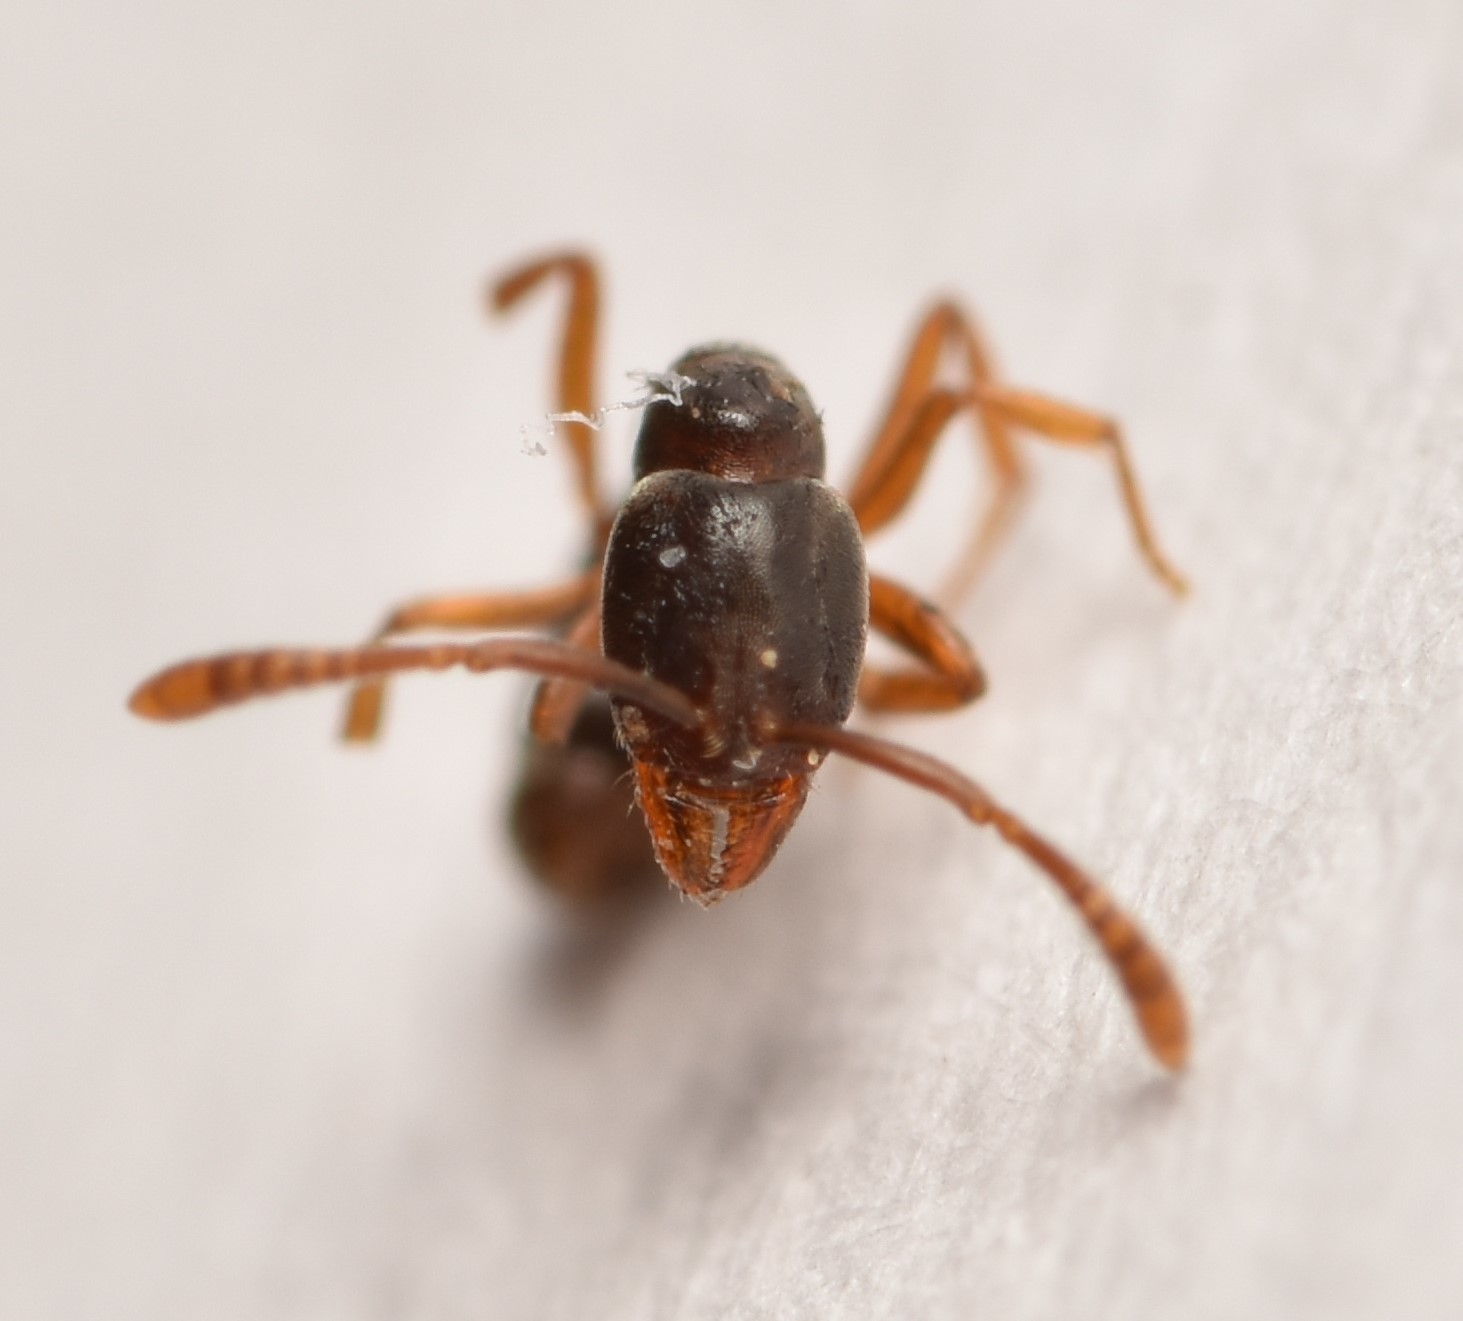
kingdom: Animalia
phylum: Arthropoda
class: Insecta
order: Hymenoptera
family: Formicidae
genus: Hypoponera
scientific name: Hypoponera opacior
